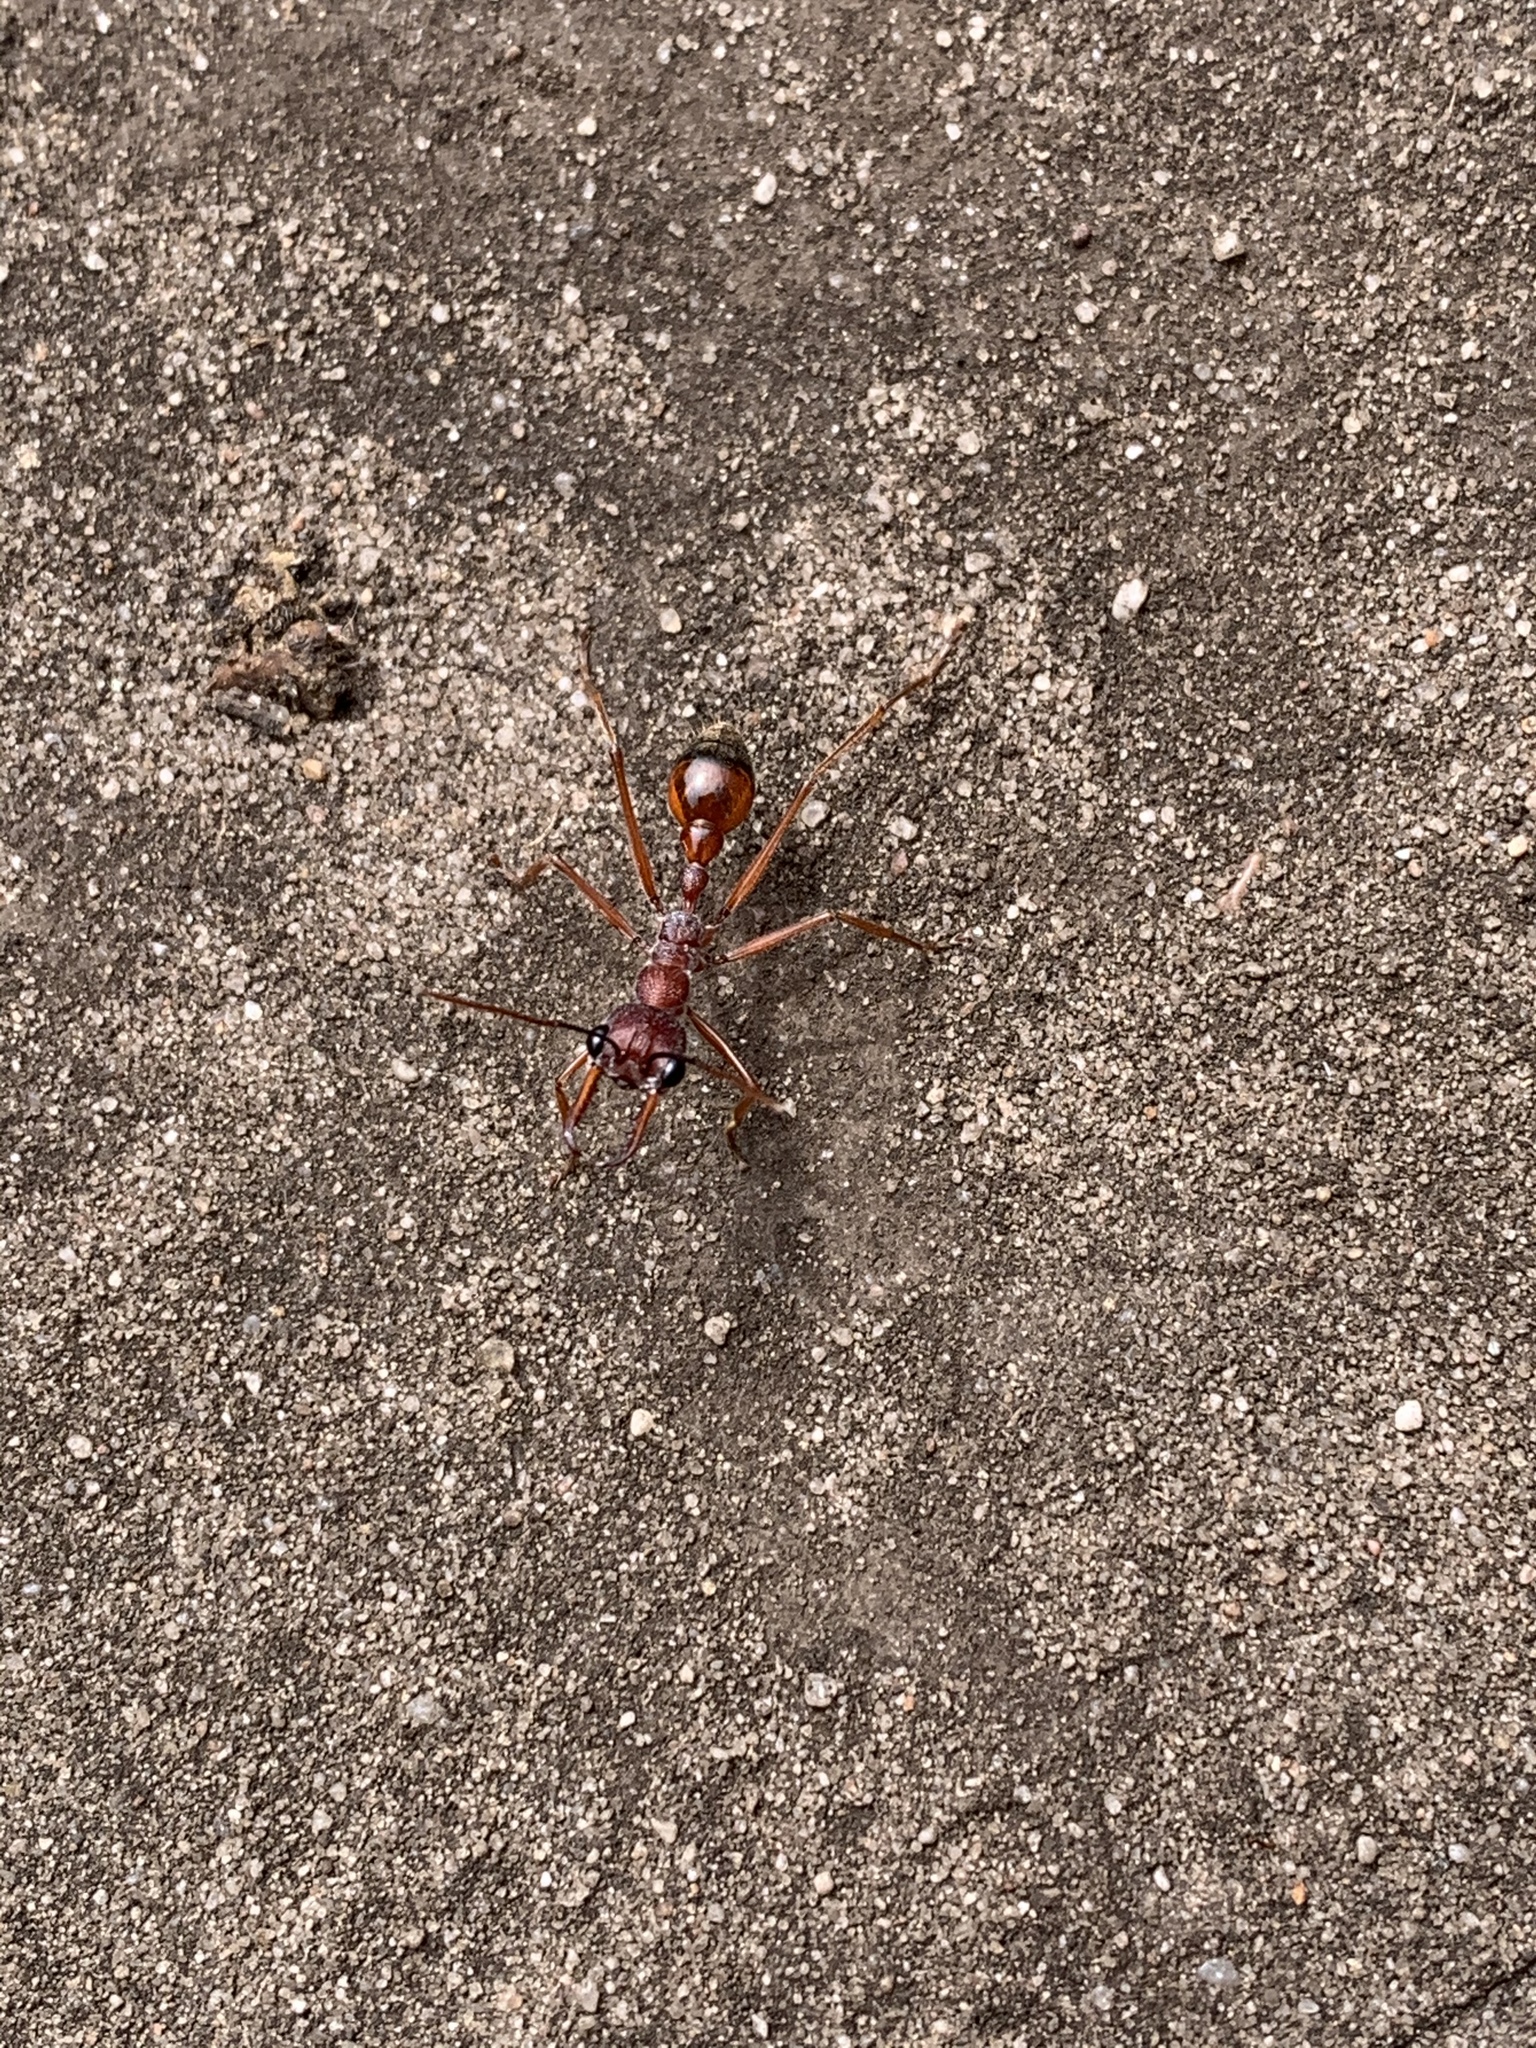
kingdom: Animalia
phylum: Arthropoda
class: Insecta
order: Hymenoptera
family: Formicidae
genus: Myrmecia
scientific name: Myrmecia nigriscapa
